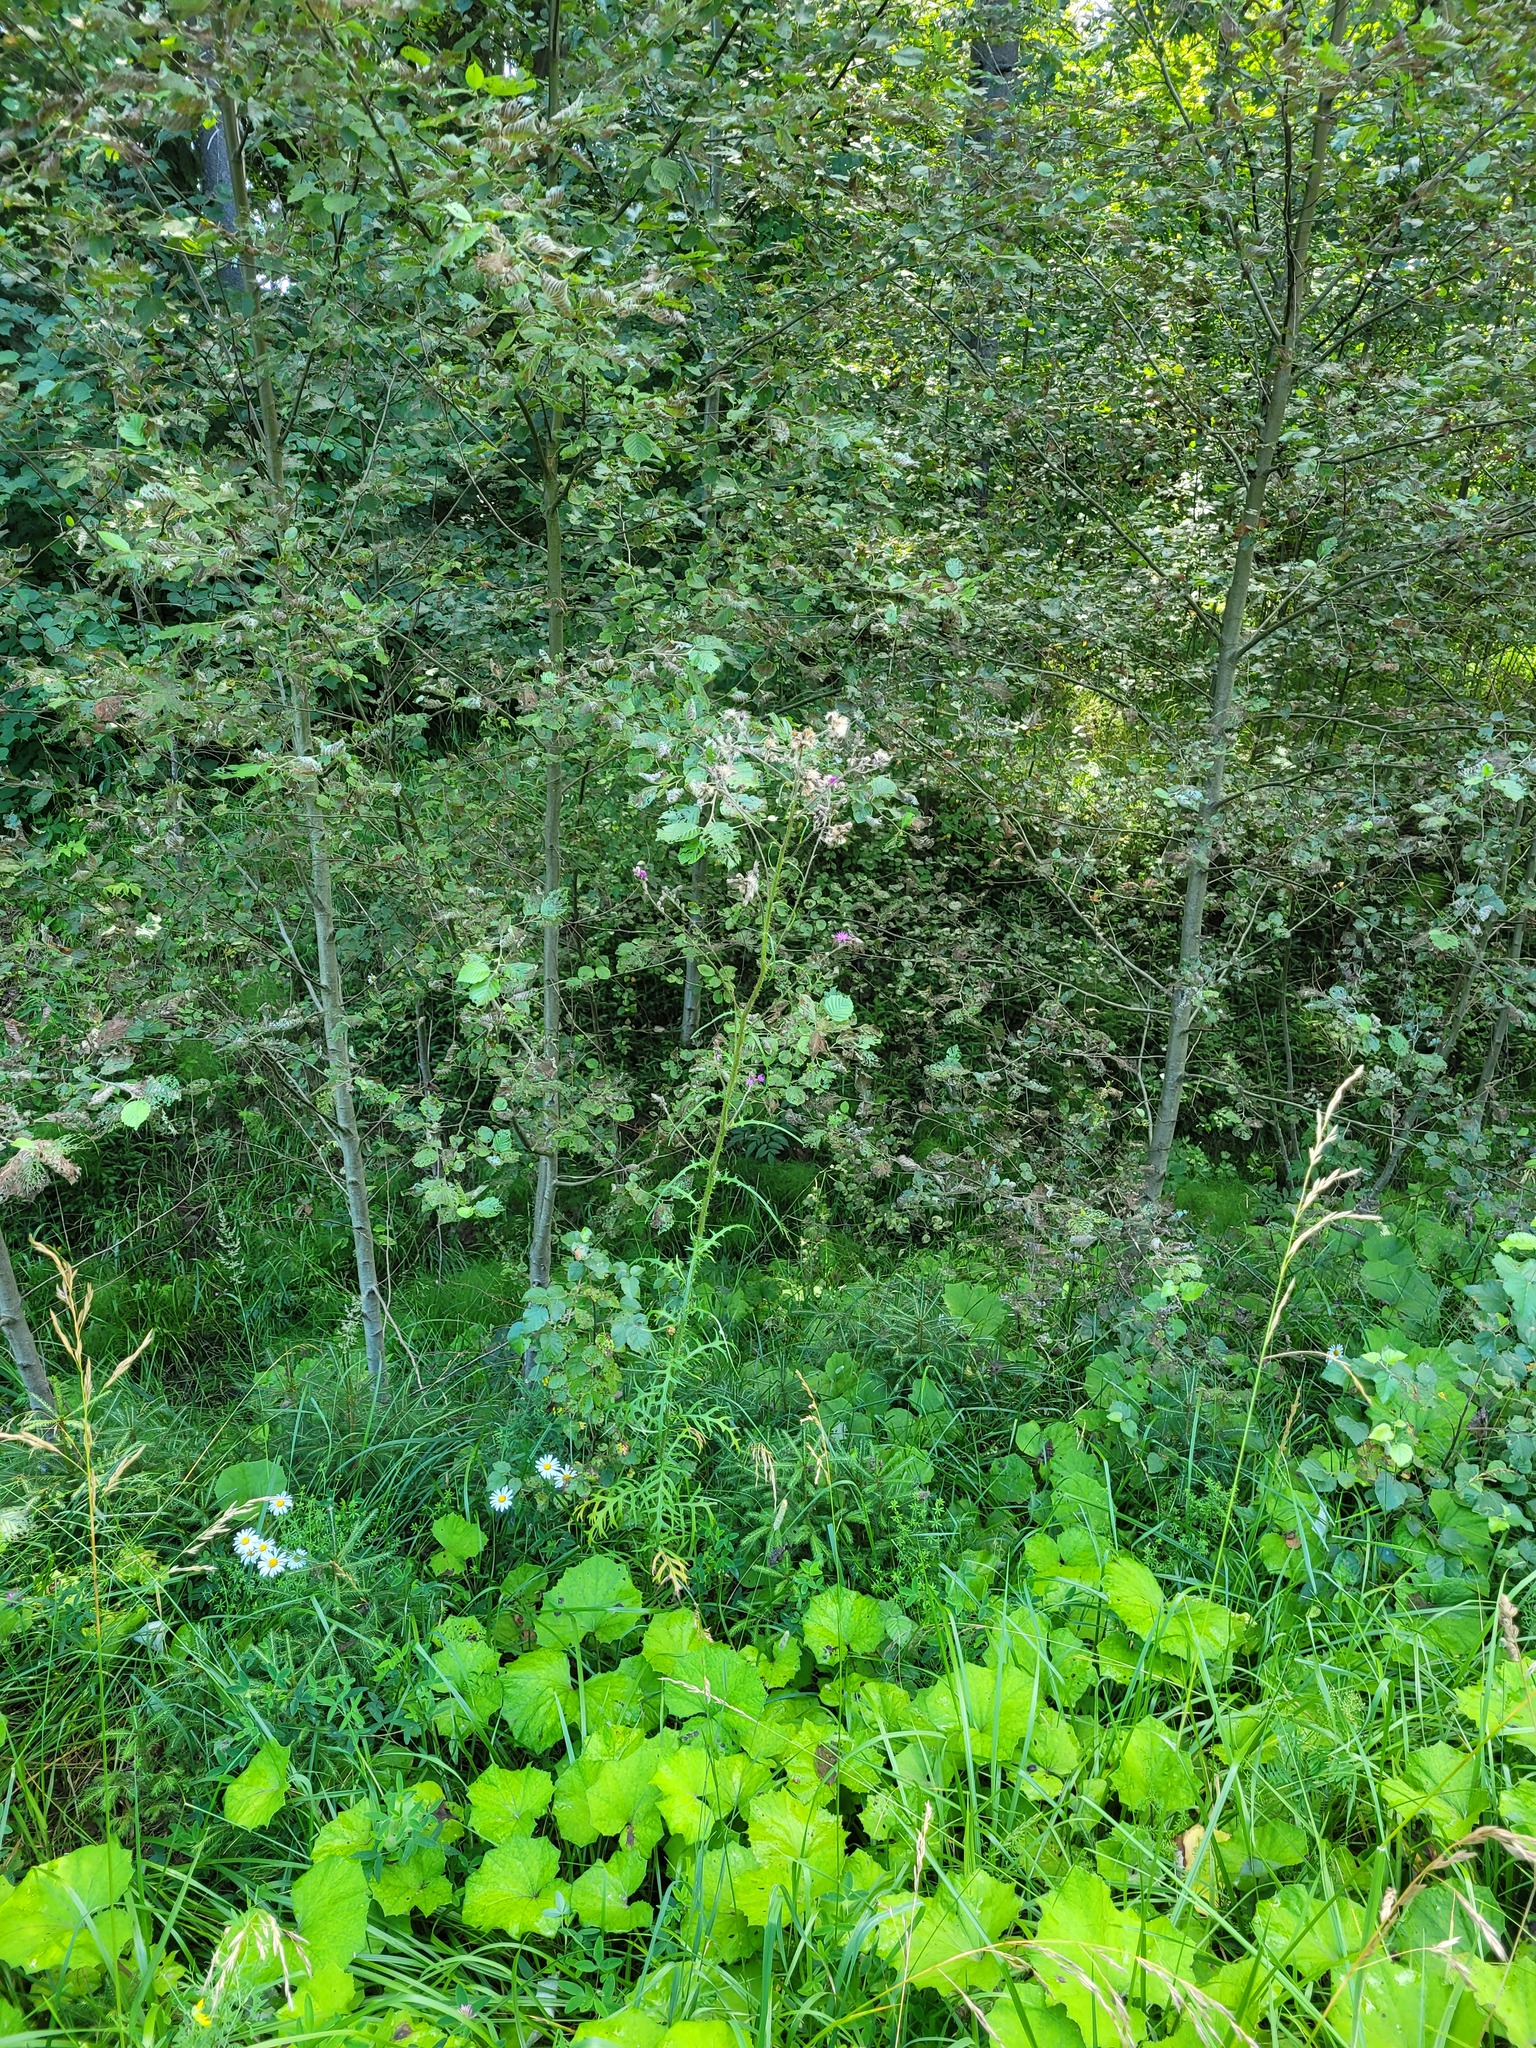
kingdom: Plantae
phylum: Tracheophyta
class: Magnoliopsida
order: Asterales
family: Asteraceae
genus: Cirsium
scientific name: Cirsium palustre
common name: Marsh thistle
